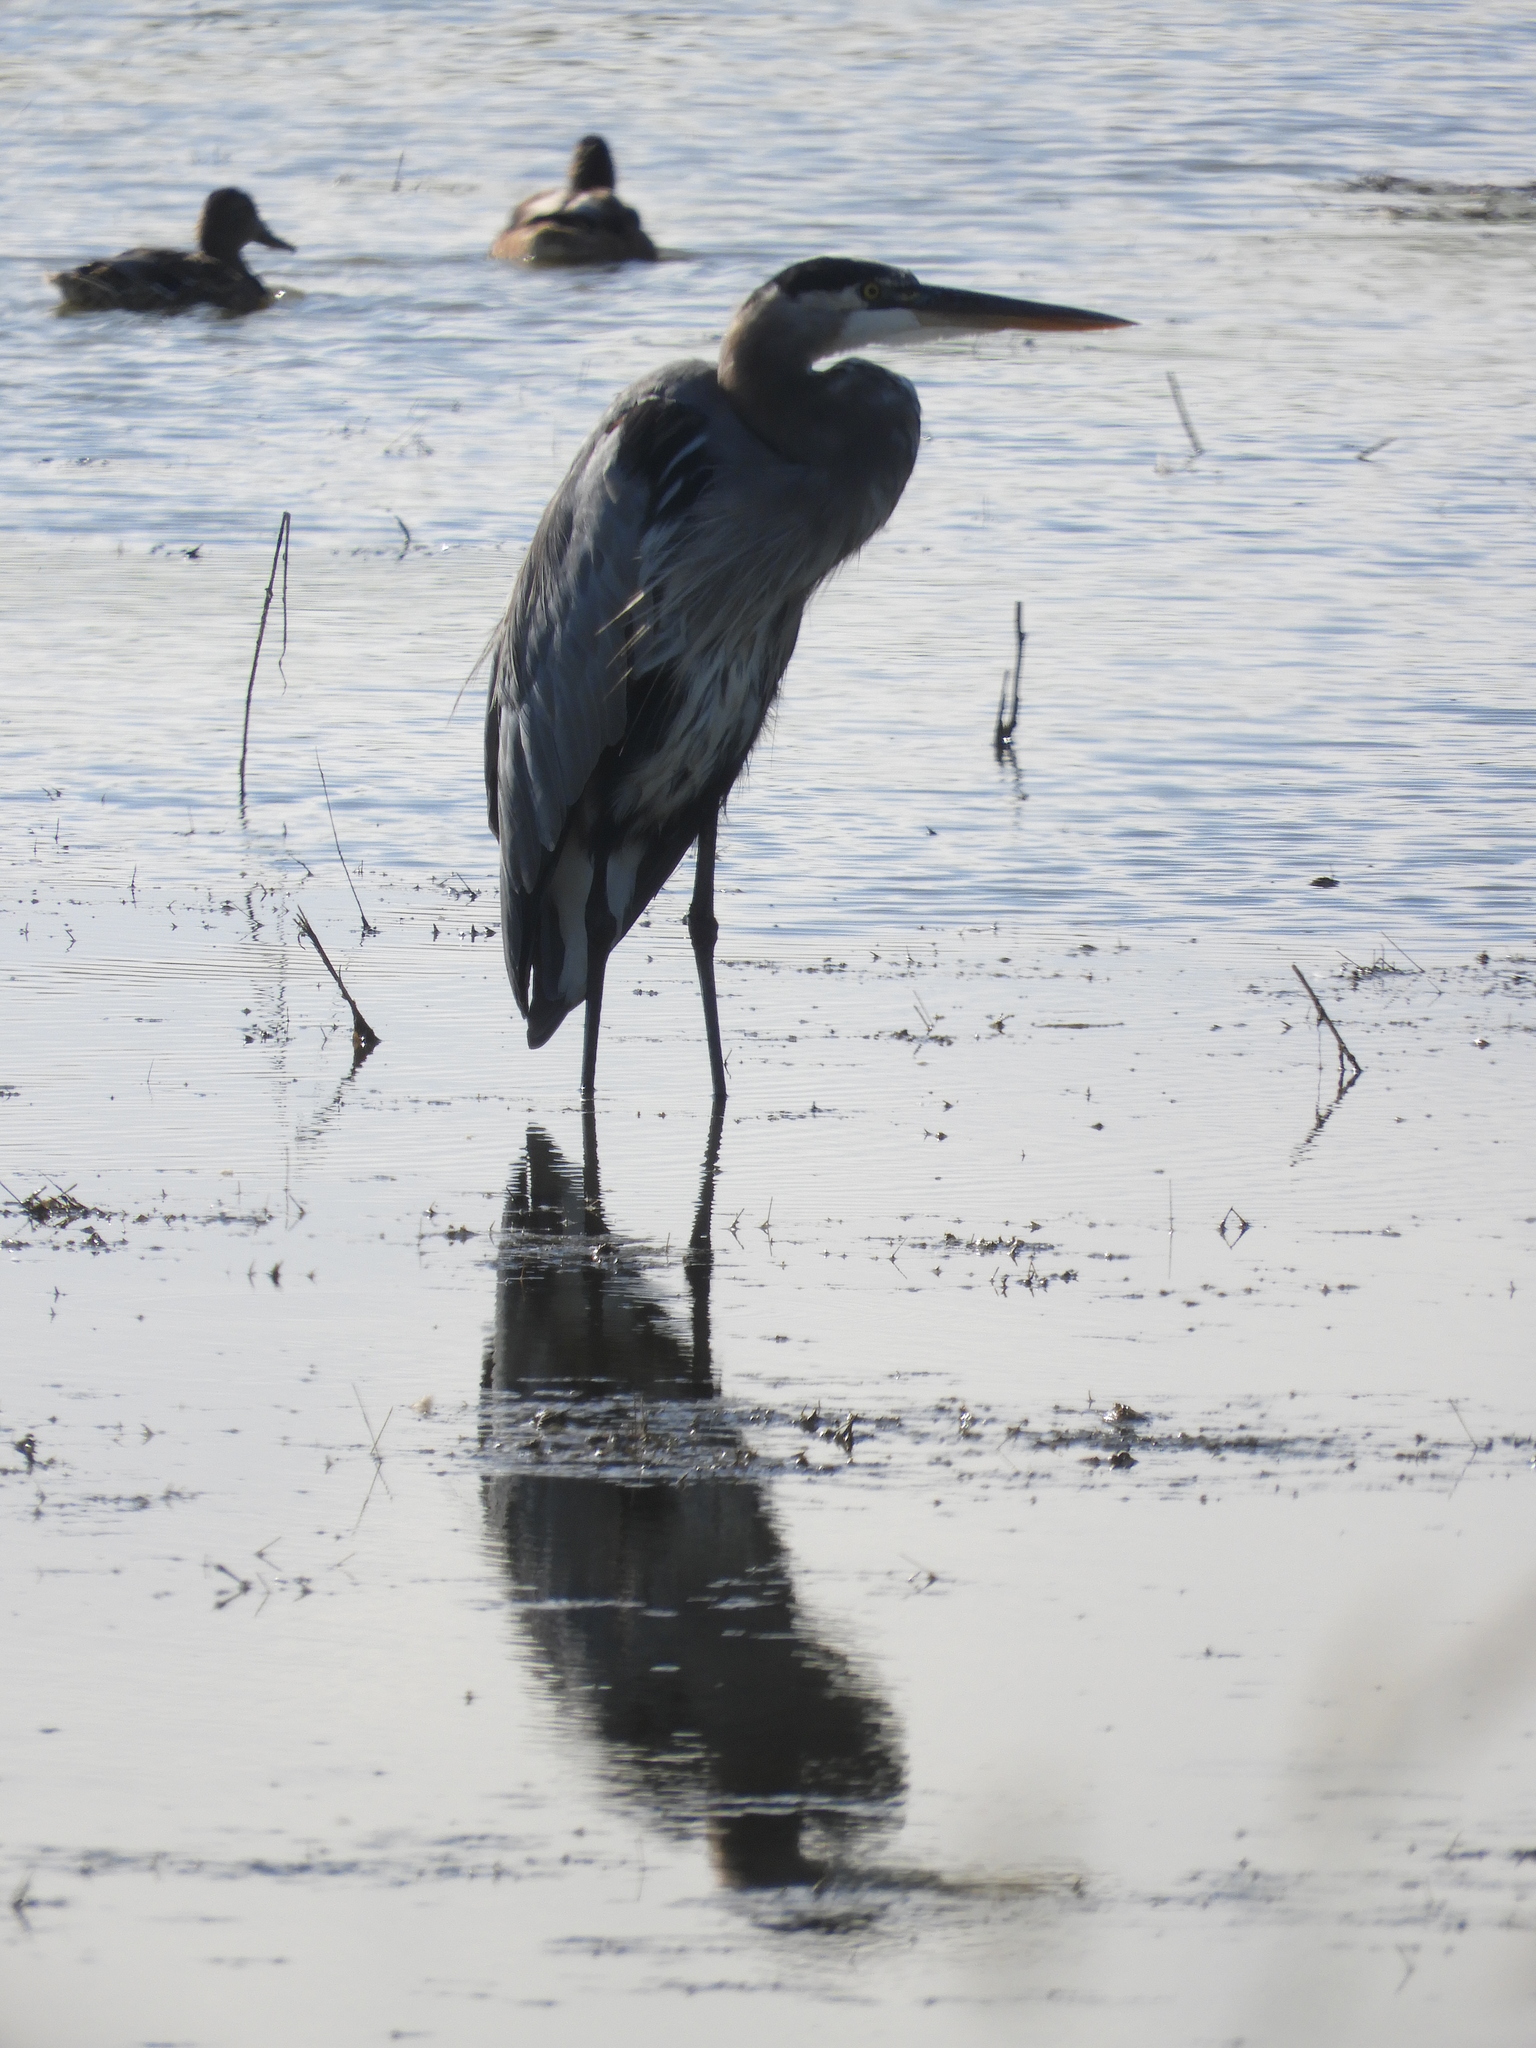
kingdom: Animalia
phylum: Chordata
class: Aves
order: Pelecaniformes
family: Ardeidae
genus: Ardea
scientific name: Ardea herodias
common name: Great blue heron
